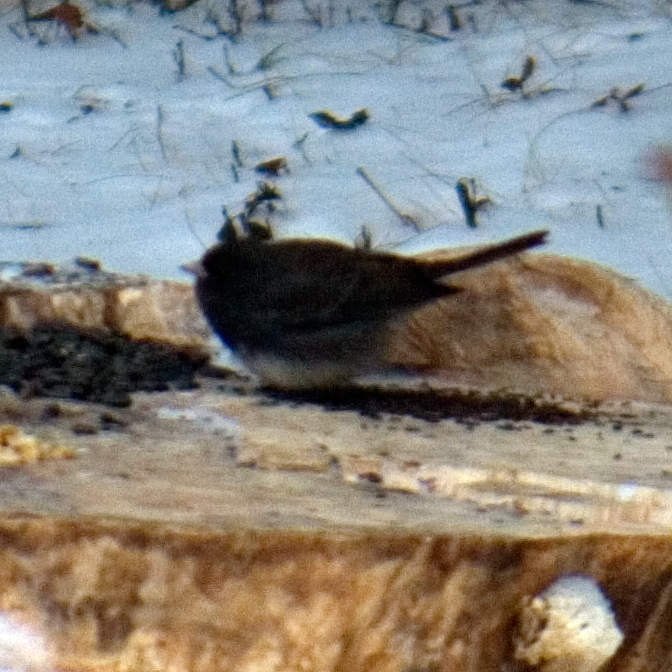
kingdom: Animalia
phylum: Chordata
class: Aves
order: Passeriformes
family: Passerellidae
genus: Junco
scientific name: Junco hyemalis
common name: Dark-eyed junco
